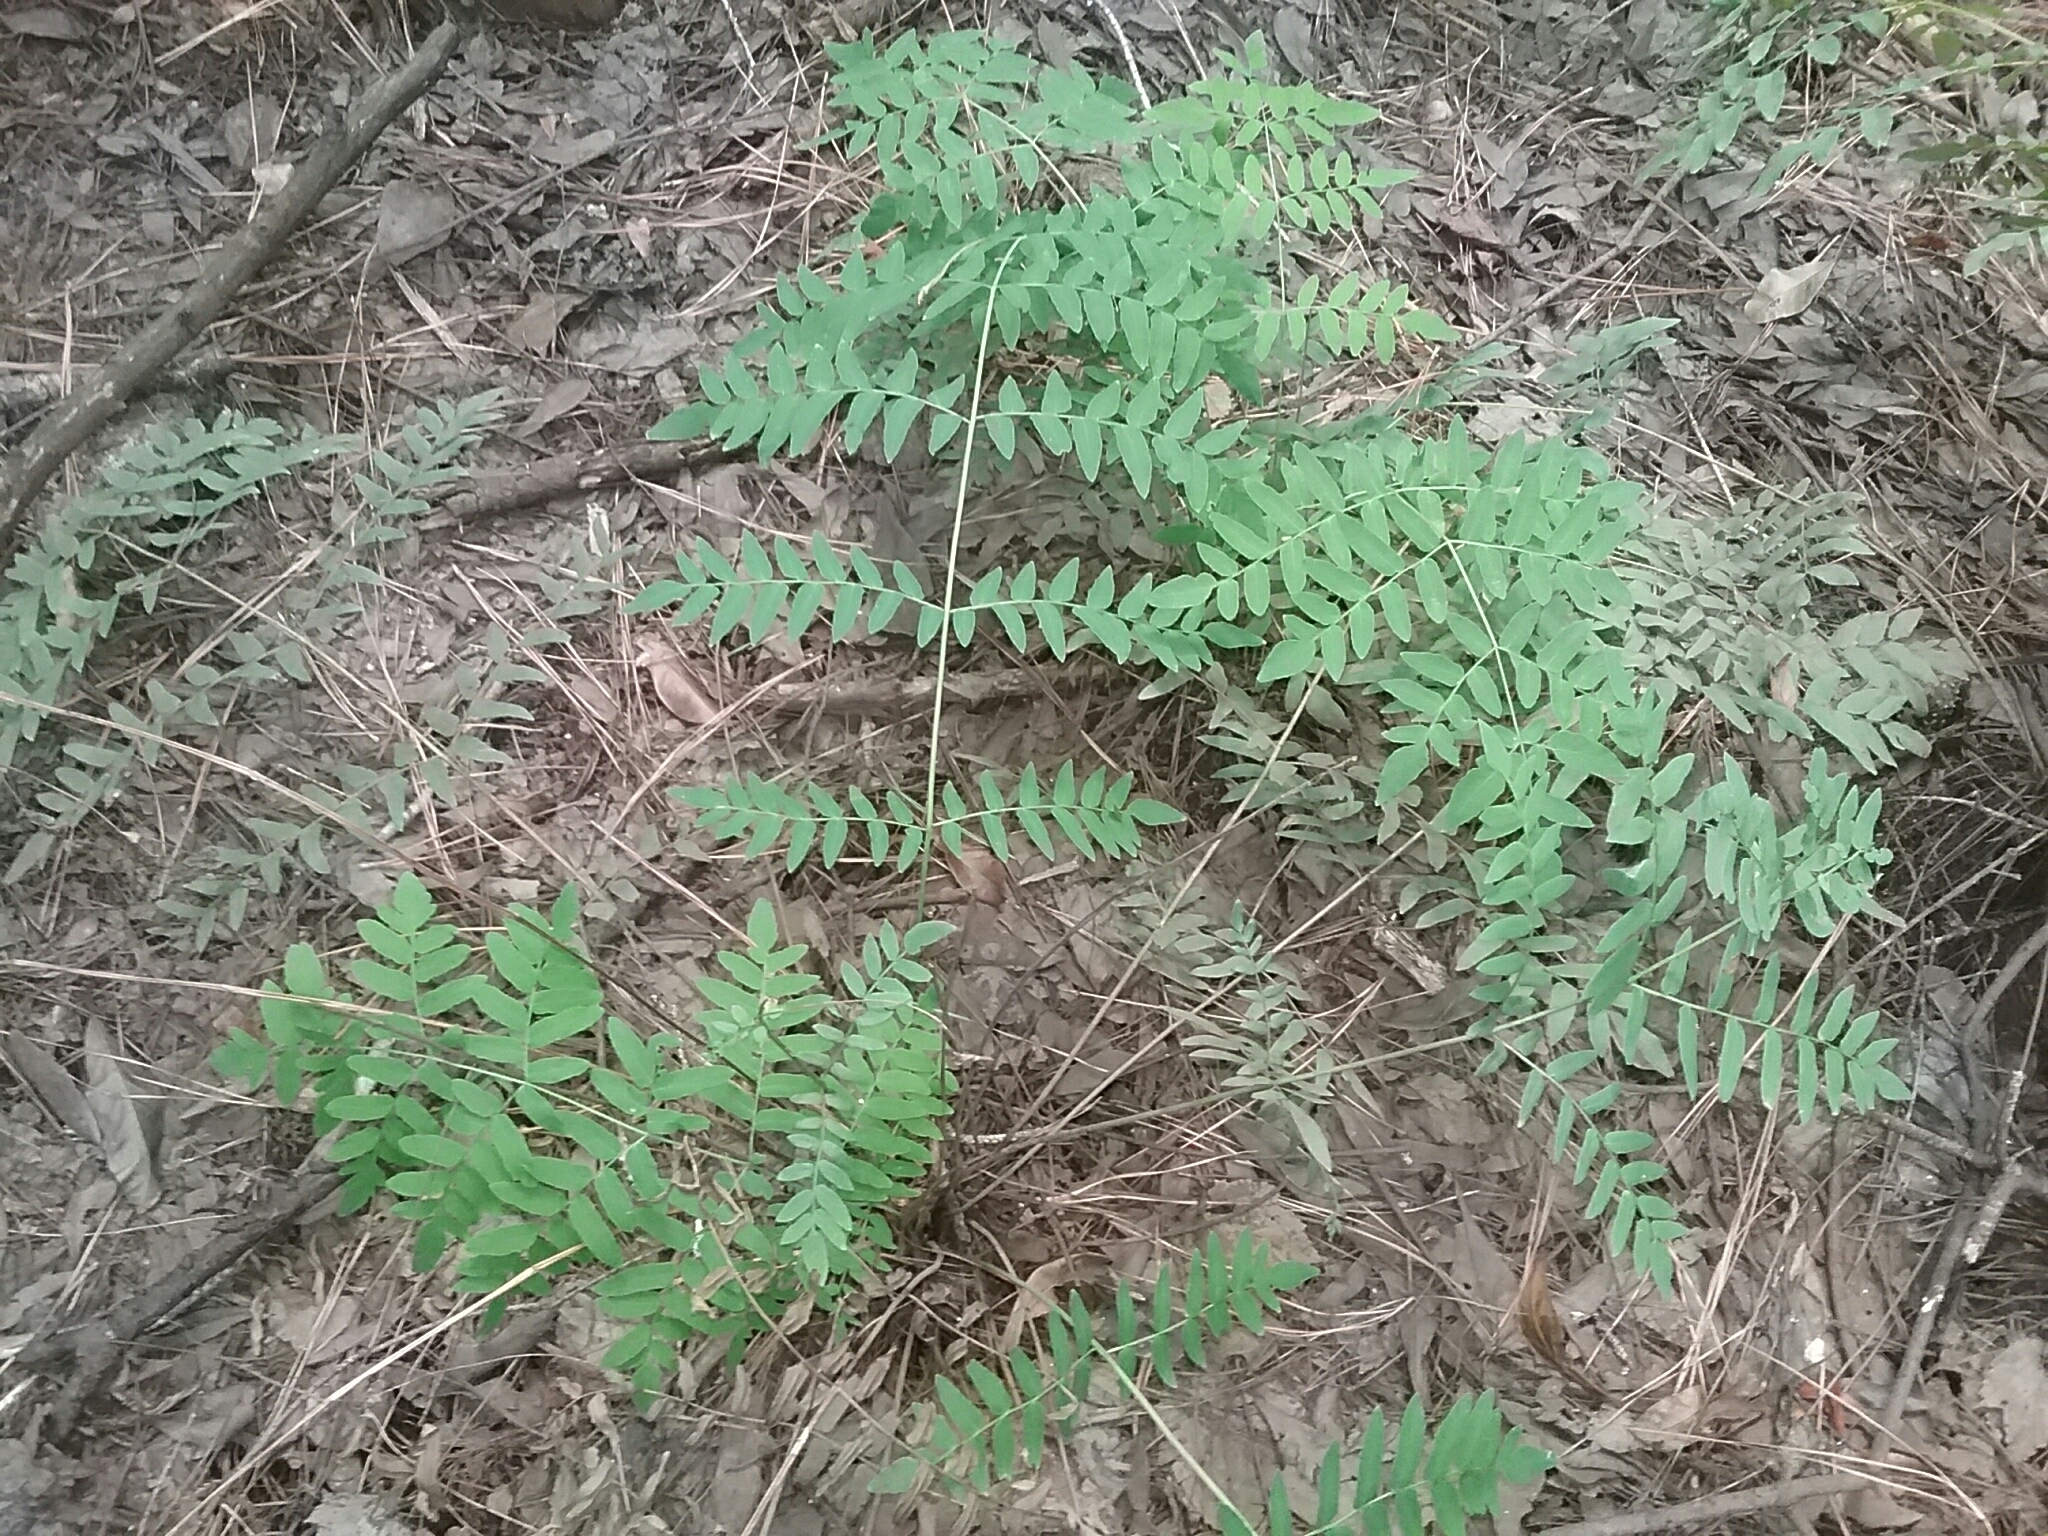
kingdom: Plantae
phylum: Tracheophyta
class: Polypodiopsida
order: Osmundales
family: Osmundaceae
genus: Osmunda
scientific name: Osmunda spectabilis
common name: American royal fern
